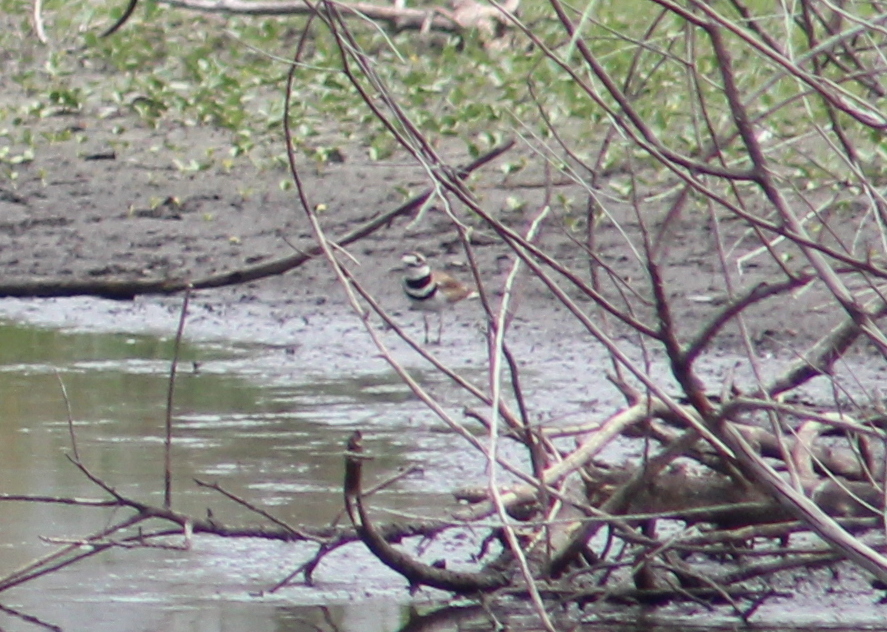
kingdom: Animalia
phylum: Chordata
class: Aves
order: Charadriiformes
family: Charadriidae
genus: Charadrius
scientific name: Charadrius vociferus
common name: Killdeer
